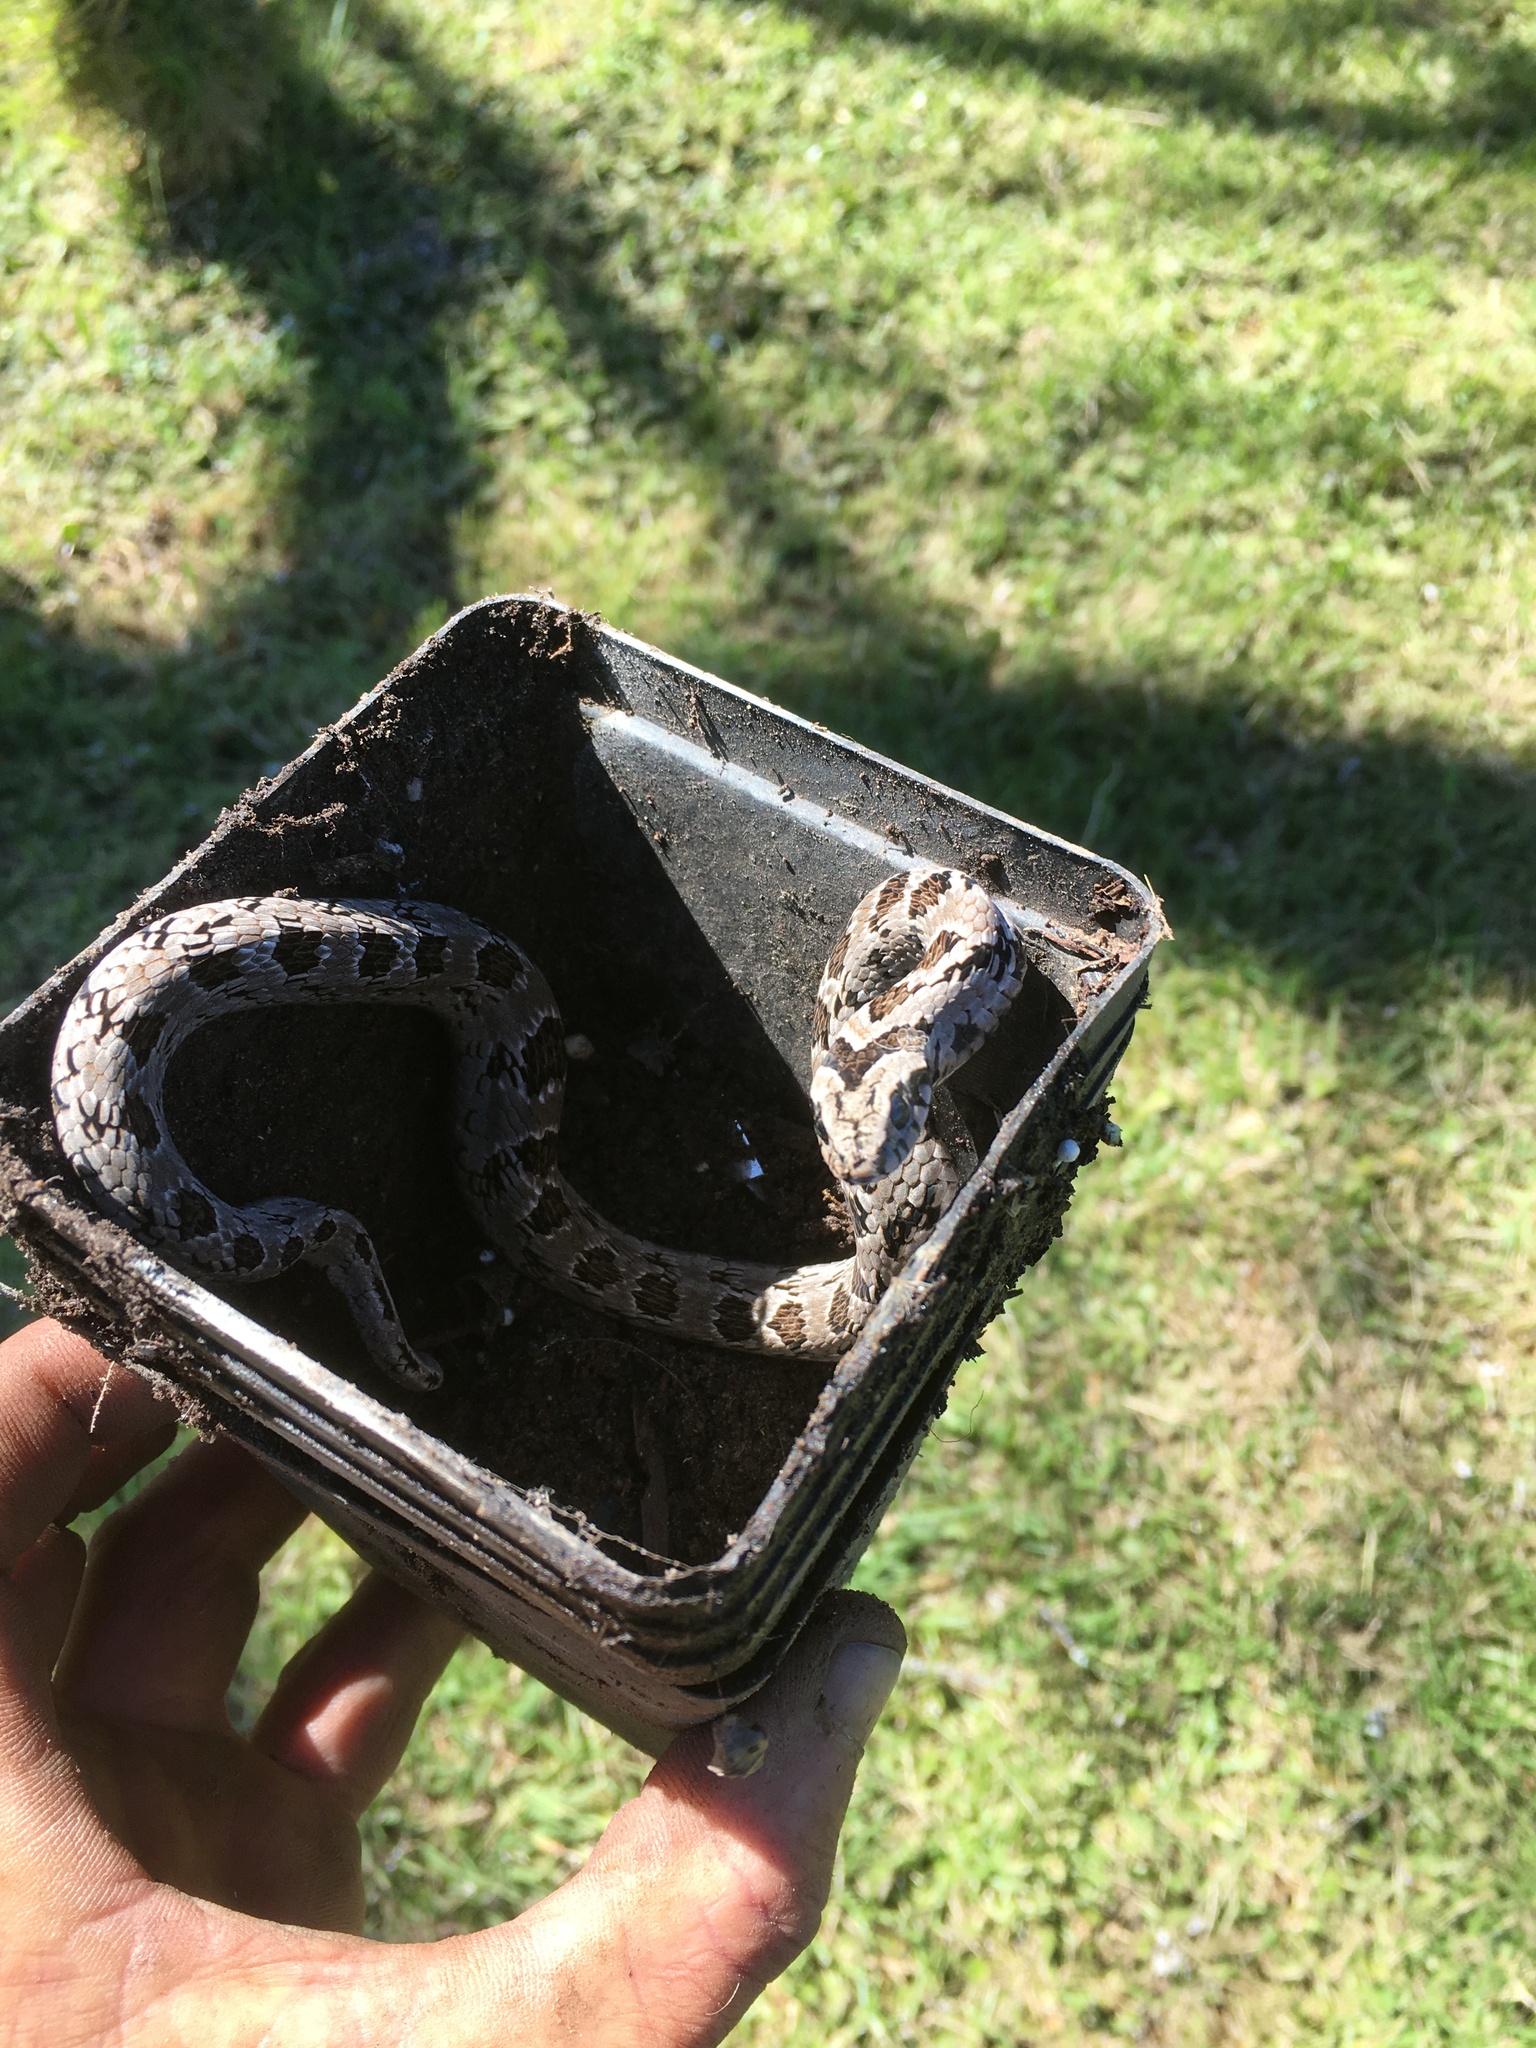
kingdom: Animalia
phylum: Chordata
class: Squamata
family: Viperidae
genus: Causus
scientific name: Causus rhombeatus
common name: Common night adder
